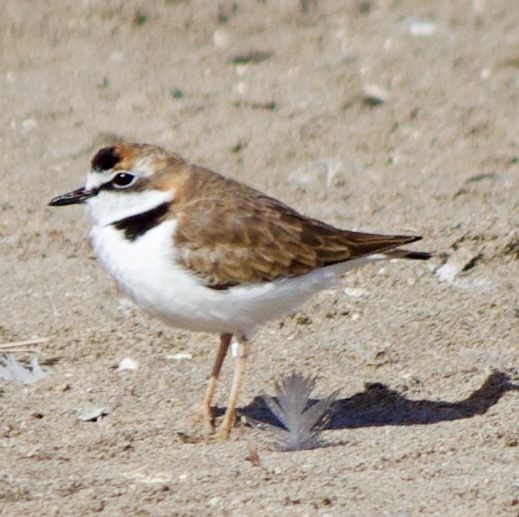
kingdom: Animalia
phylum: Chordata
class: Aves
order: Charadriiformes
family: Charadriidae
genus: Anarhynchus
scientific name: Anarhynchus
